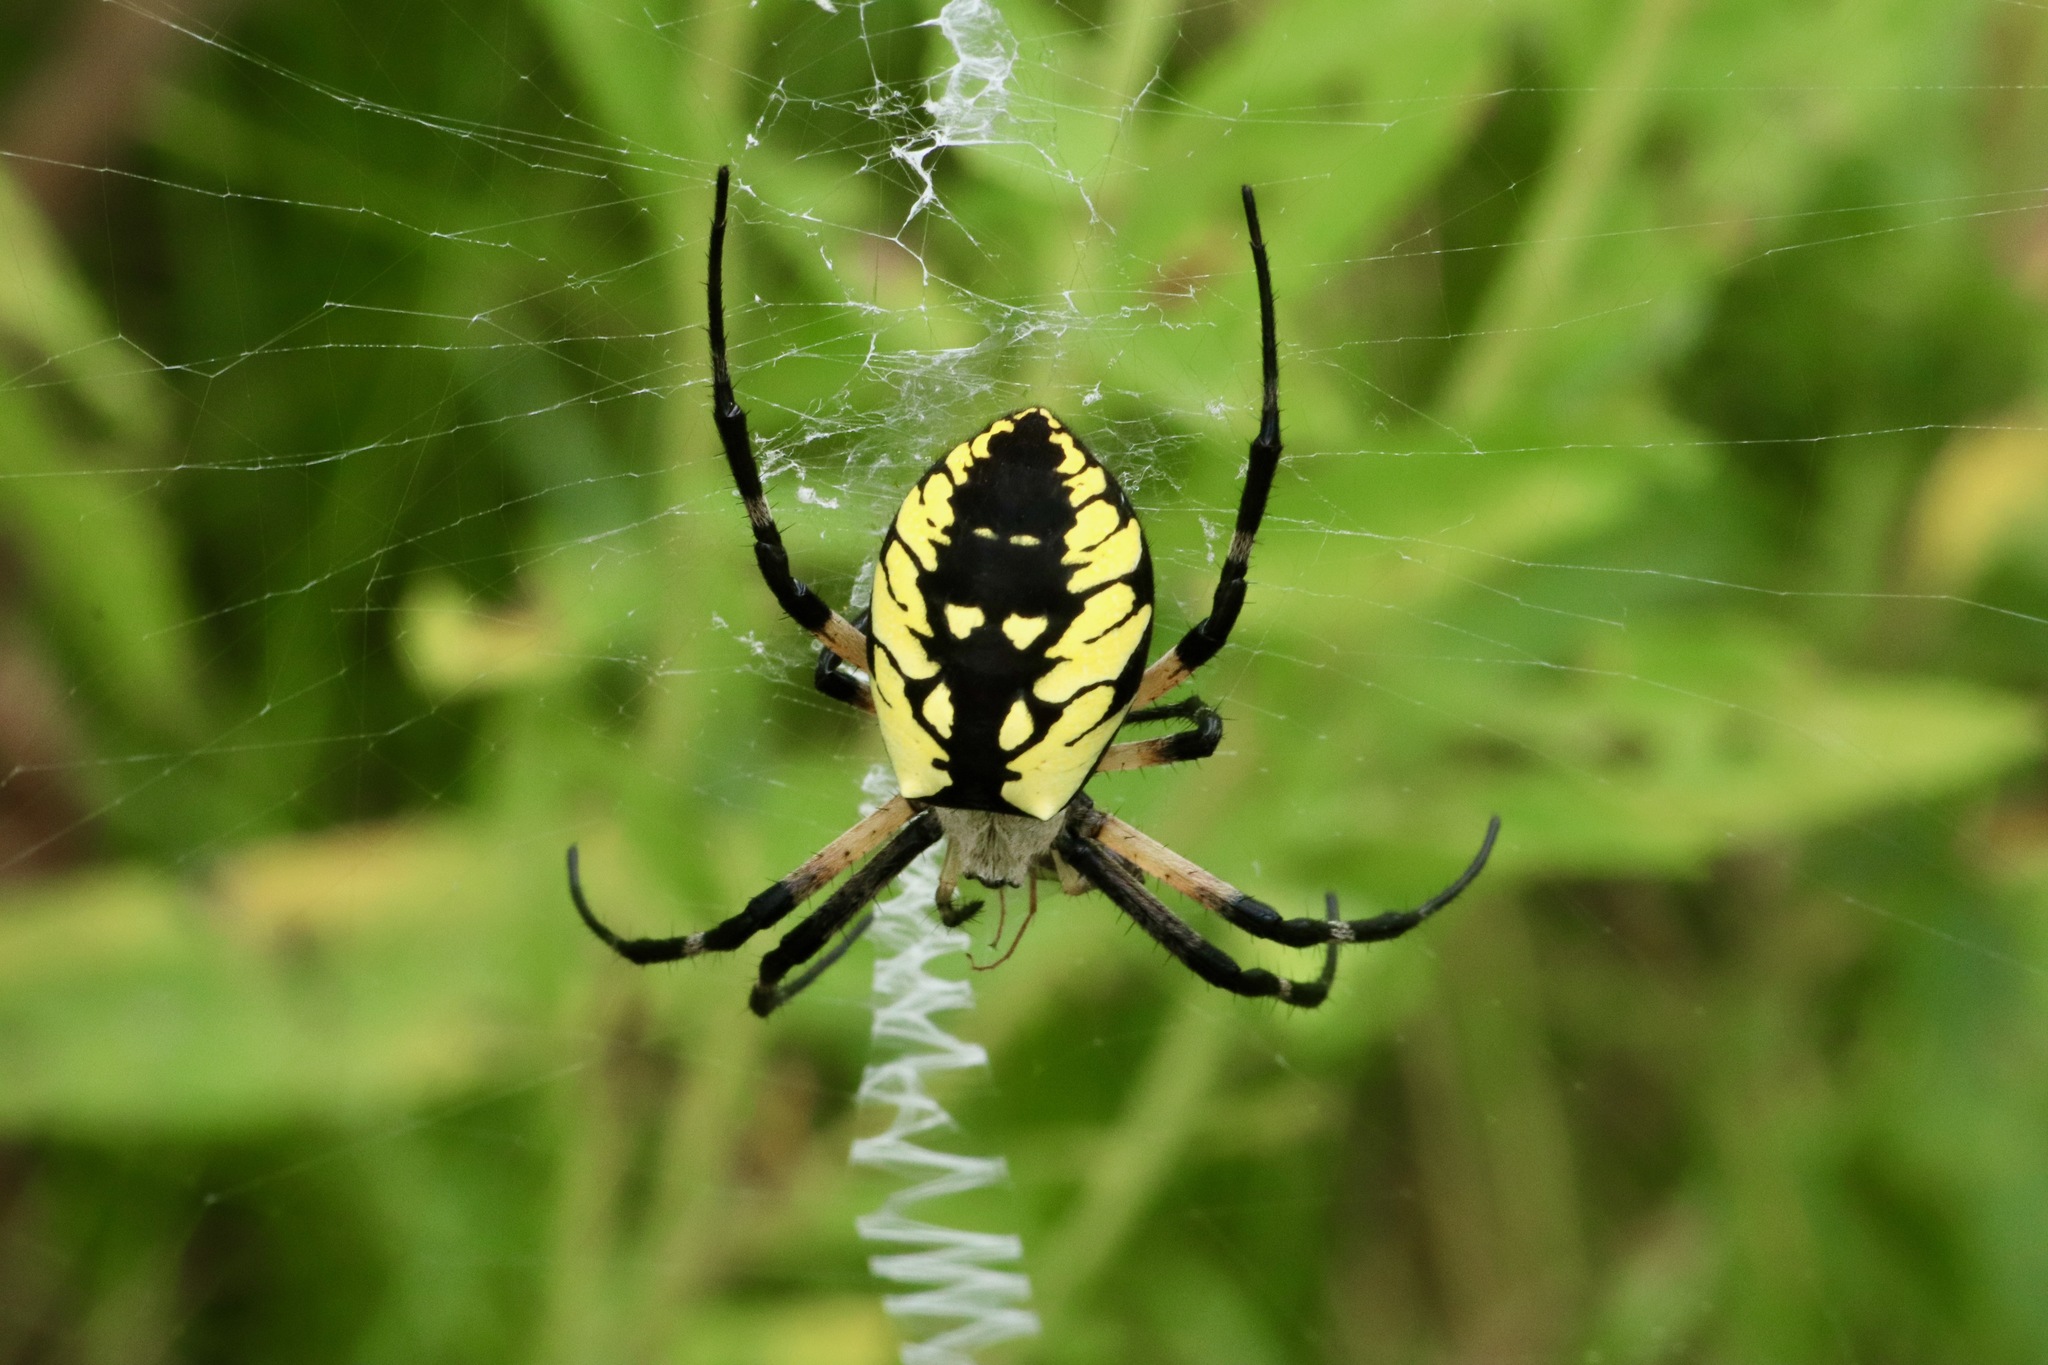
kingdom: Animalia
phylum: Arthropoda
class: Arachnida
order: Araneae
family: Araneidae
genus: Argiope
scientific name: Argiope aurantia
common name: Orb weavers
